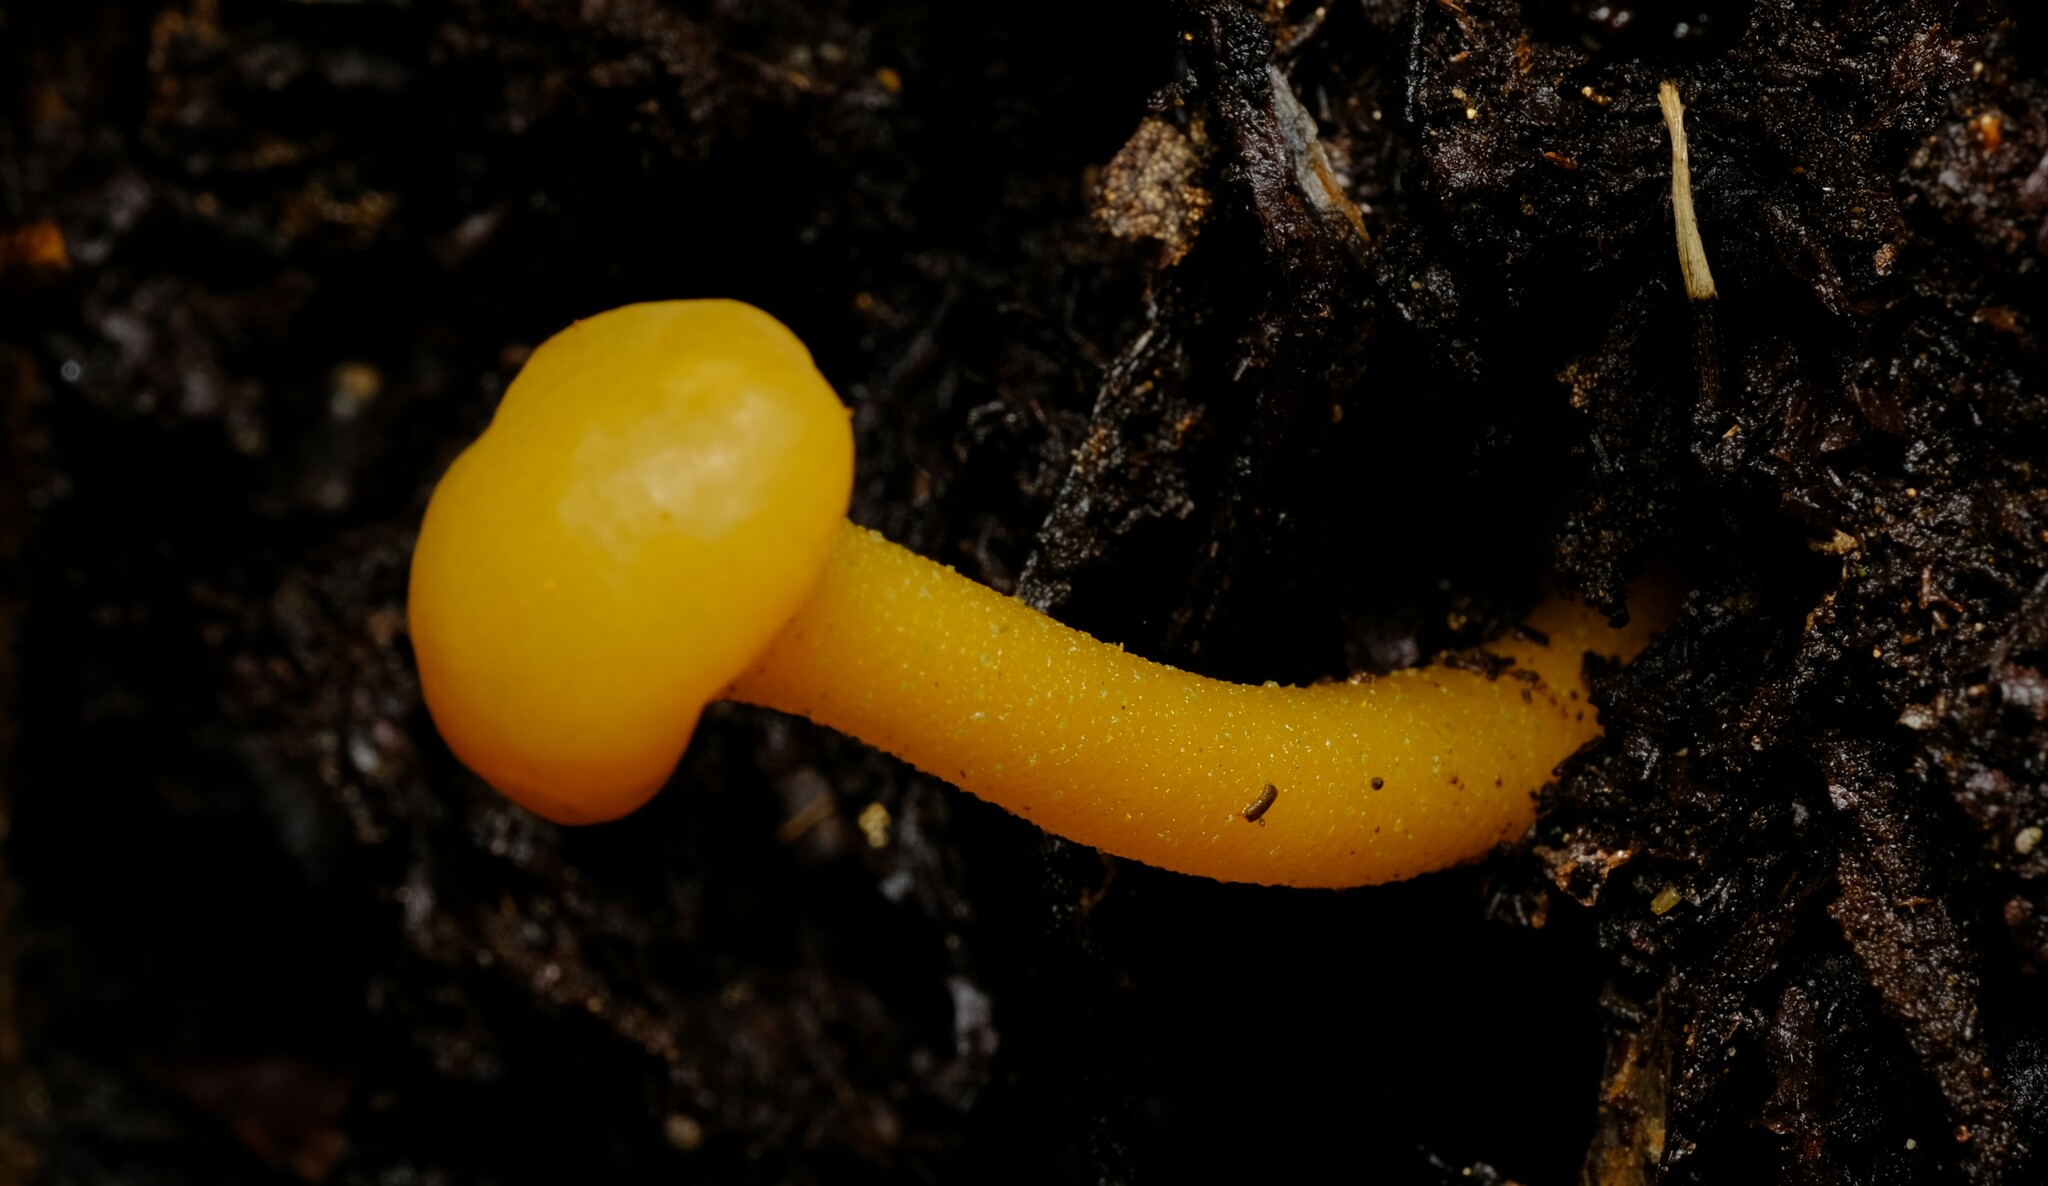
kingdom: Fungi
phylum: Ascomycota
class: Leotiomycetes
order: Leotiales
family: Leotiaceae
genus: Leotia
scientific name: Leotia lubrica
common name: Jellybaby
